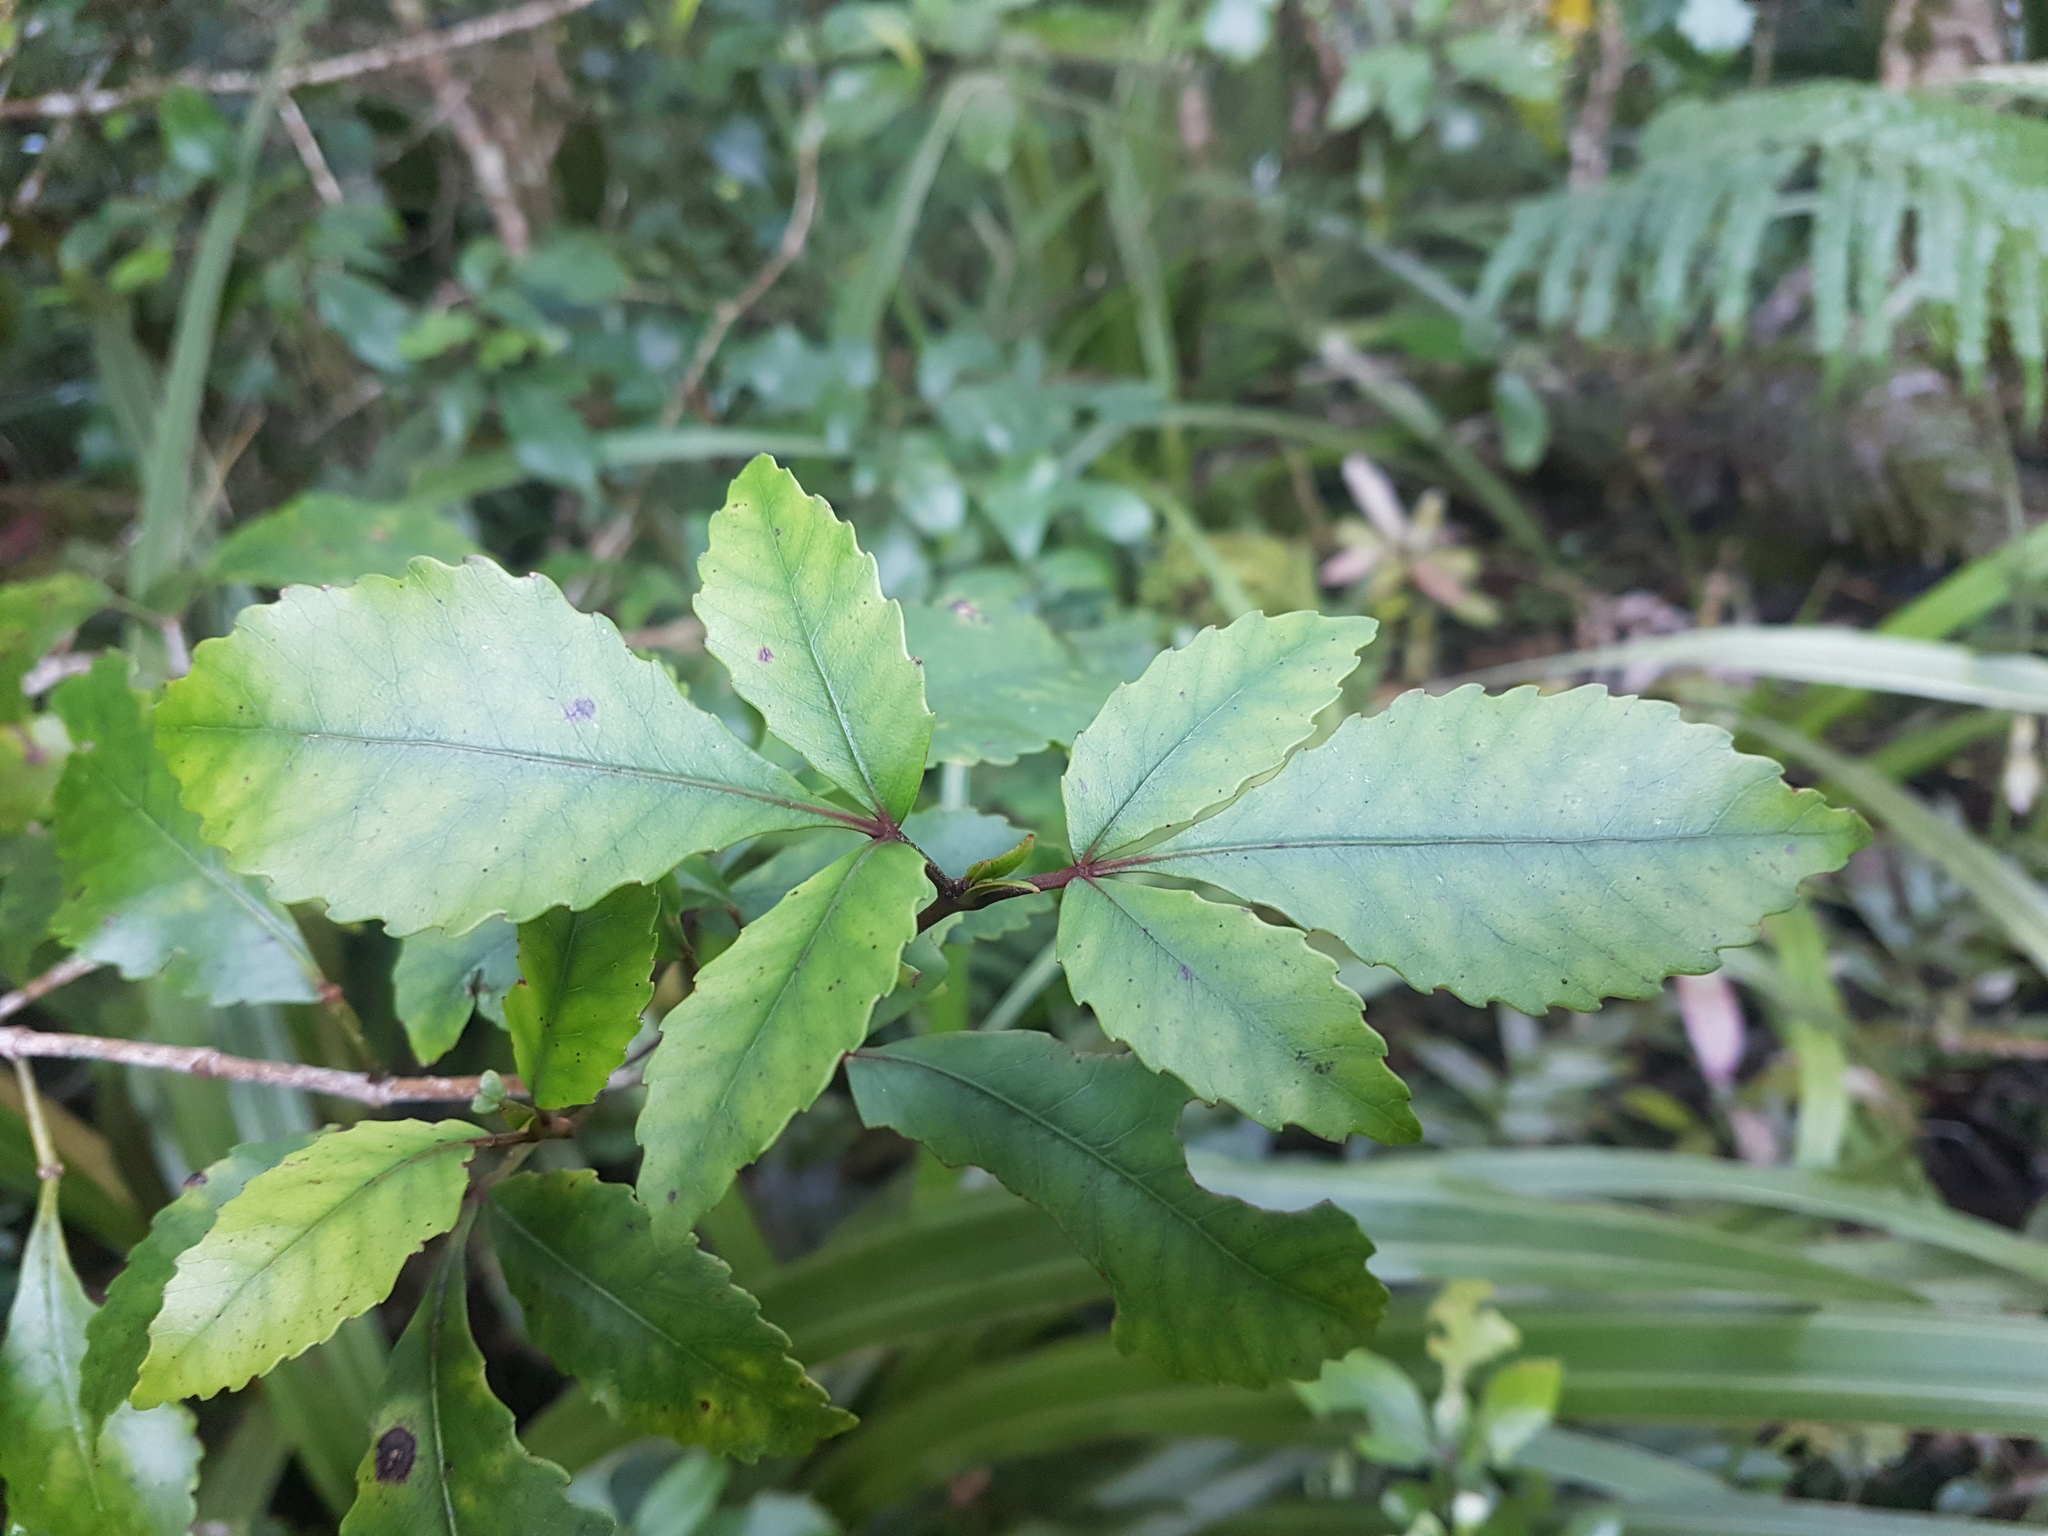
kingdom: Plantae
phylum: Tracheophyta
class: Magnoliopsida
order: Oxalidales
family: Cunoniaceae
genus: Pterophylla
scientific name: Pterophylla racemosa
